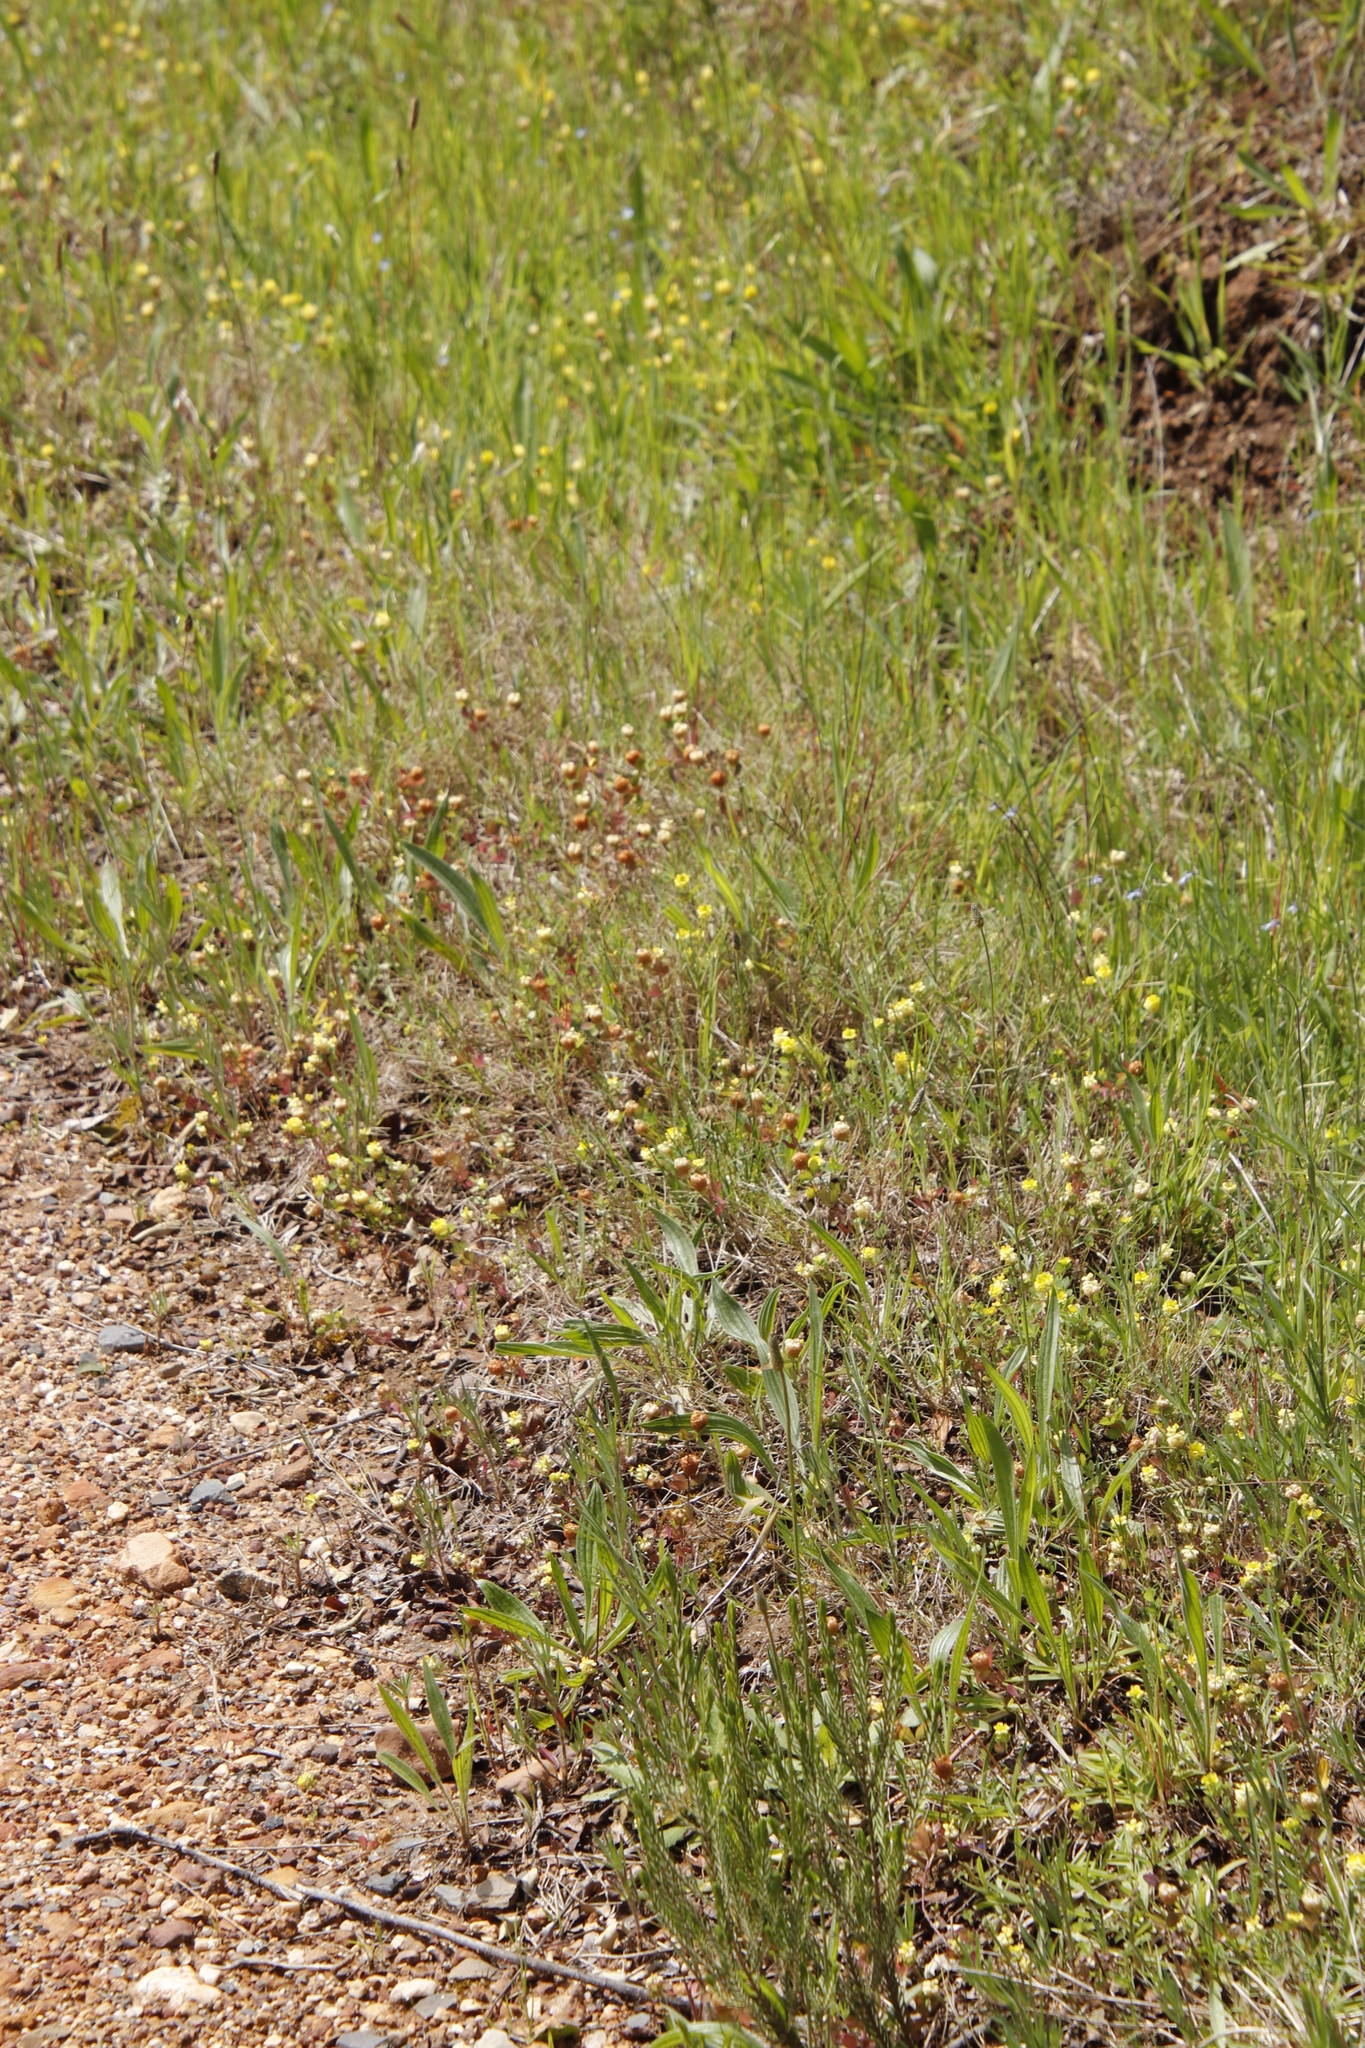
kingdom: Plantae
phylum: Tracheophyta
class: Magnoliopsida
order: Fabales
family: Fabaceae
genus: Trifolium
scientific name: Trifolium campestre
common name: Field clover
